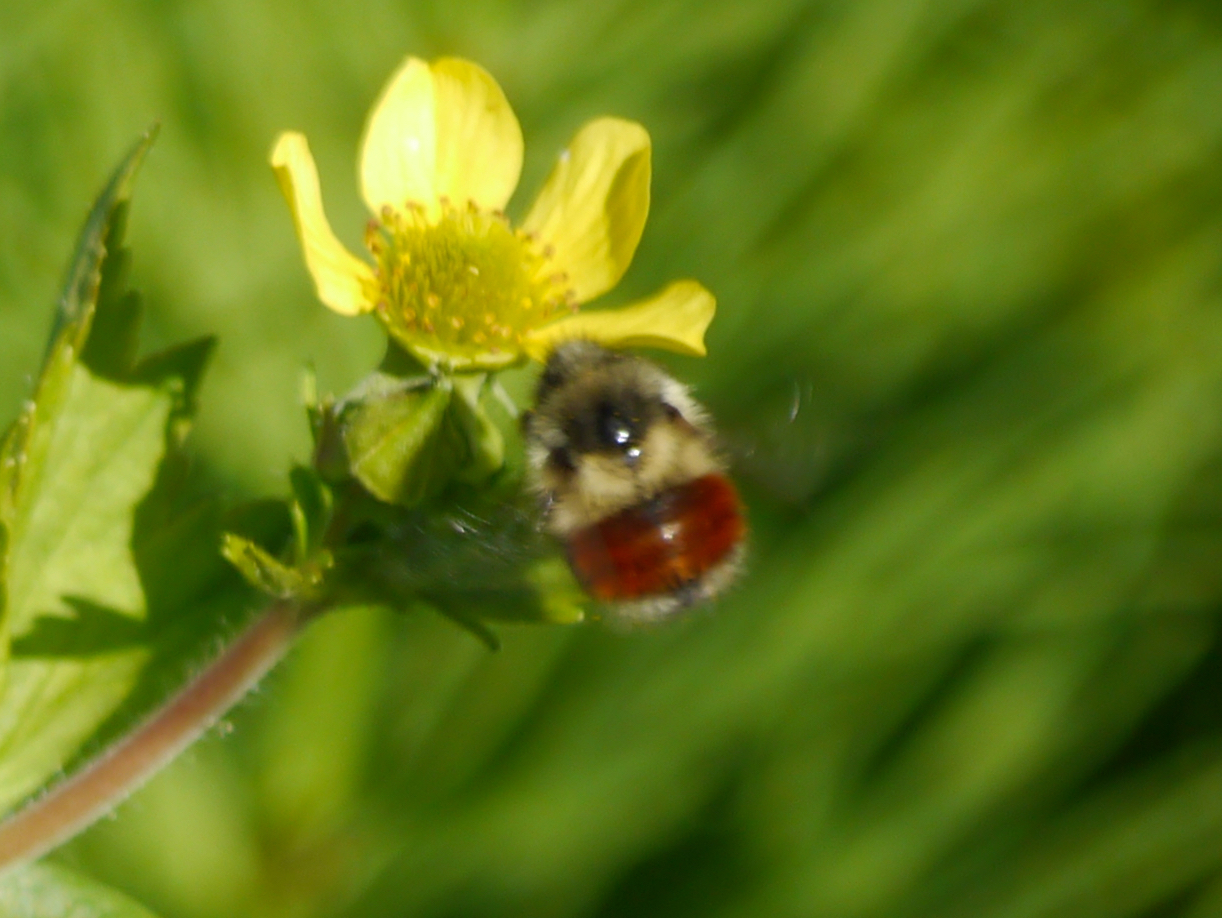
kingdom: Animalia
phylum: Arthropoda
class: Insecta
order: Hymenoptera
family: Apidae
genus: Bombus
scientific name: Bombus melanopygus
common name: Black tail bumble bee
